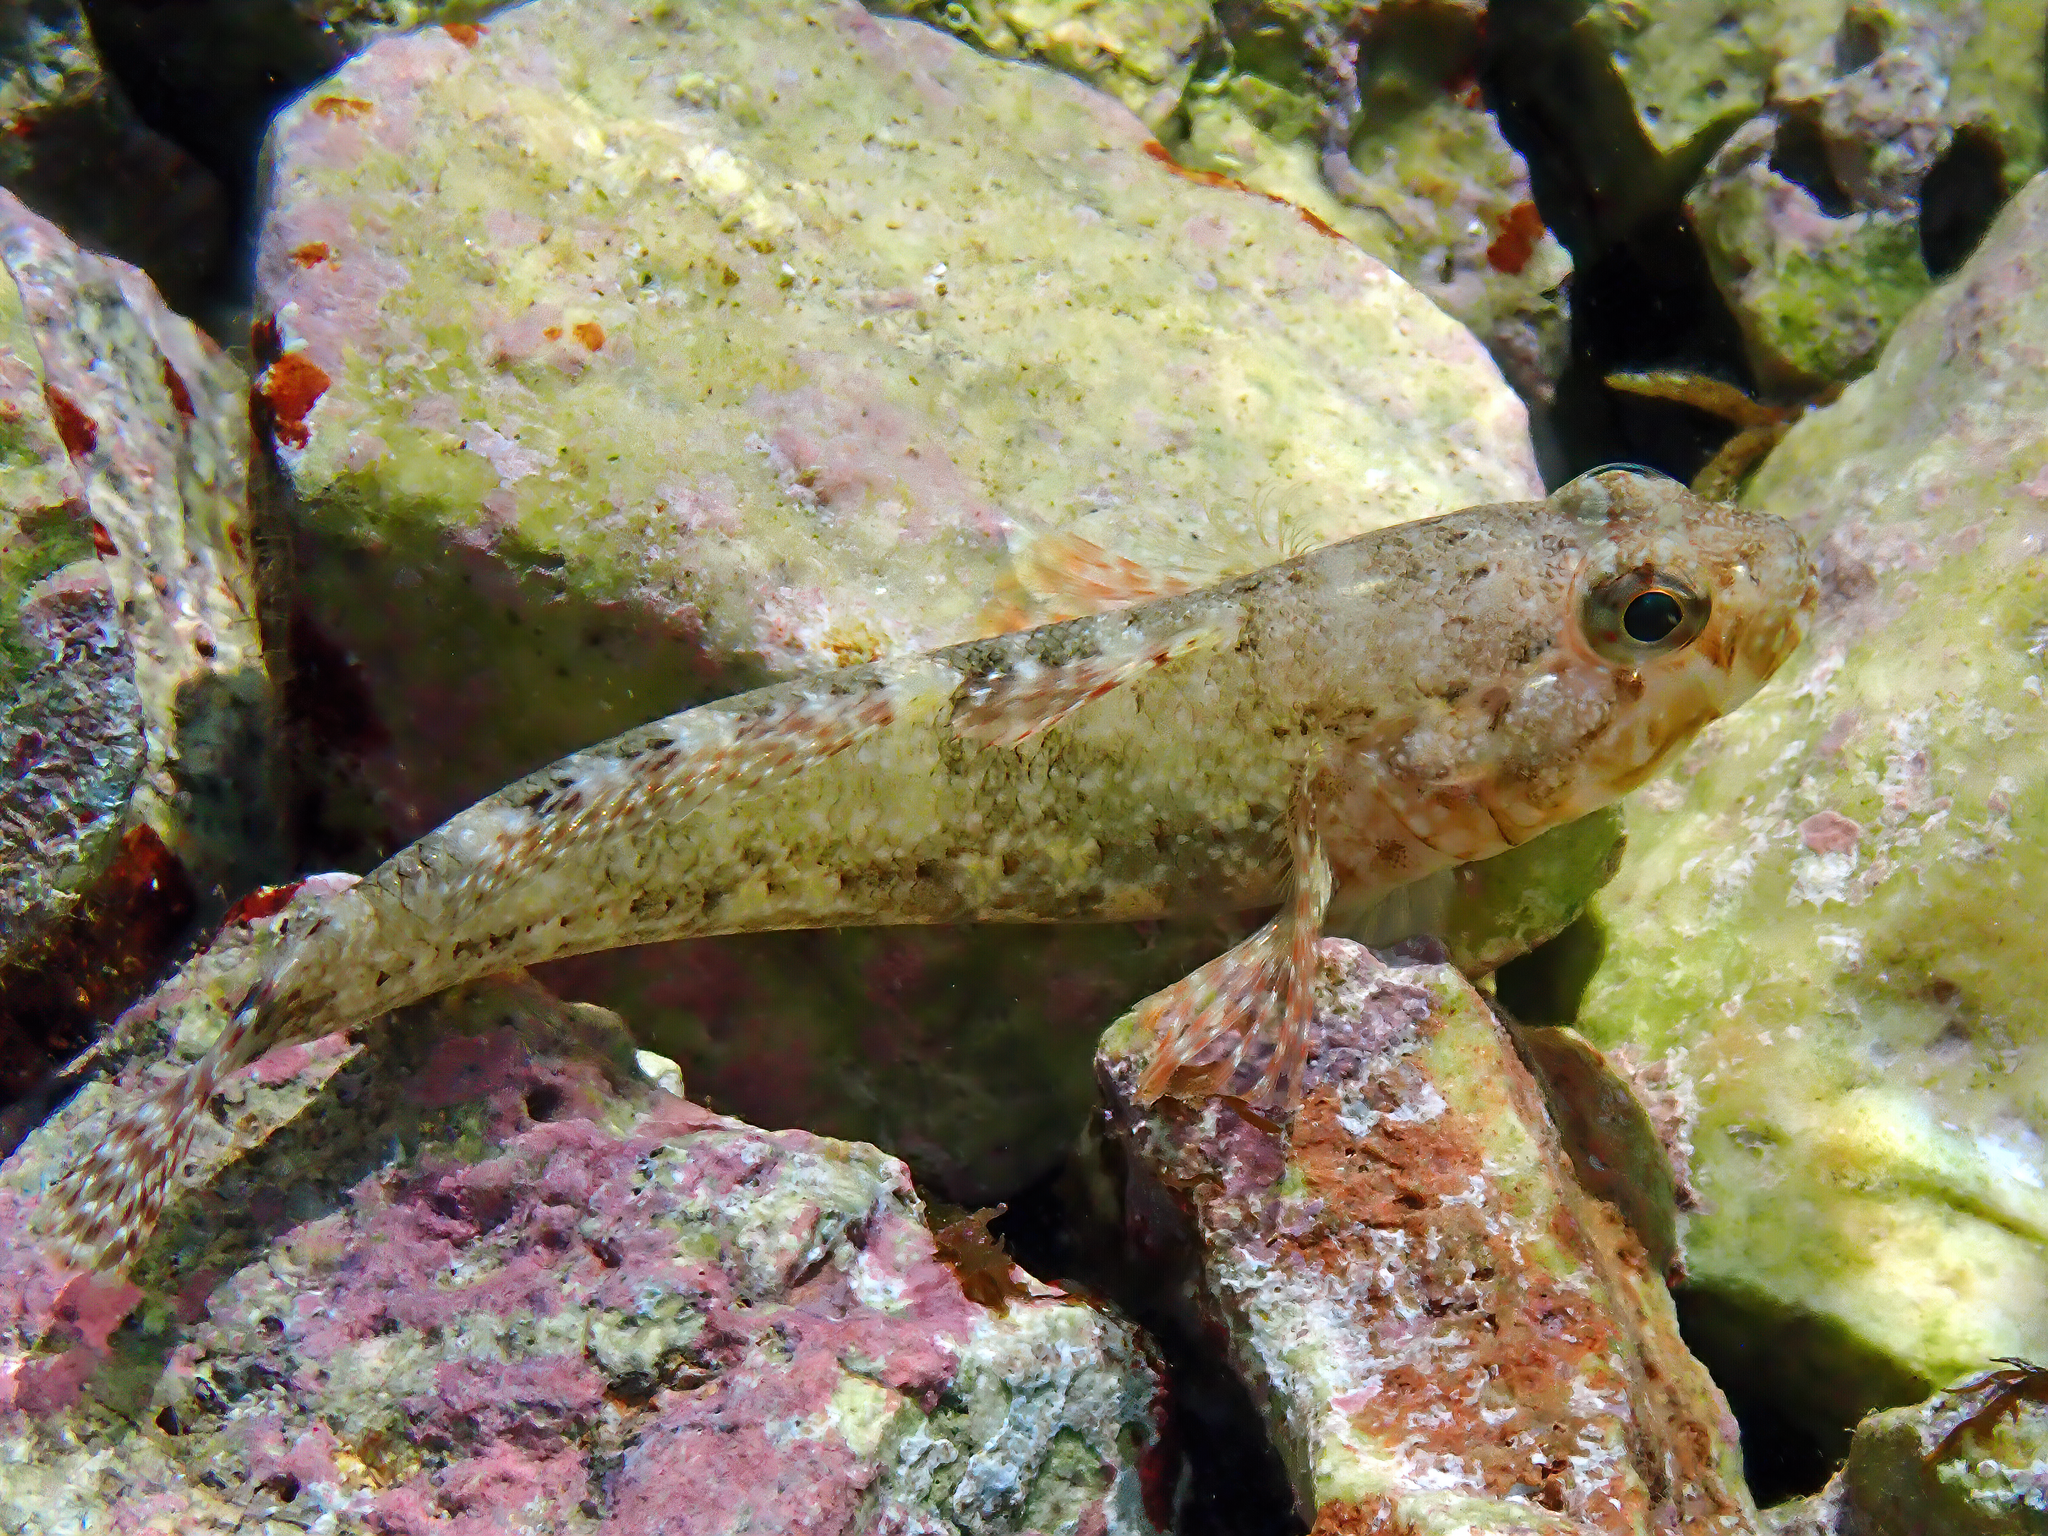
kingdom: Animalia
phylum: Chordata
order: Perciformes
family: Gobiidae
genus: Gobius
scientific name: Gobius paganellus
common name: Rock goby
